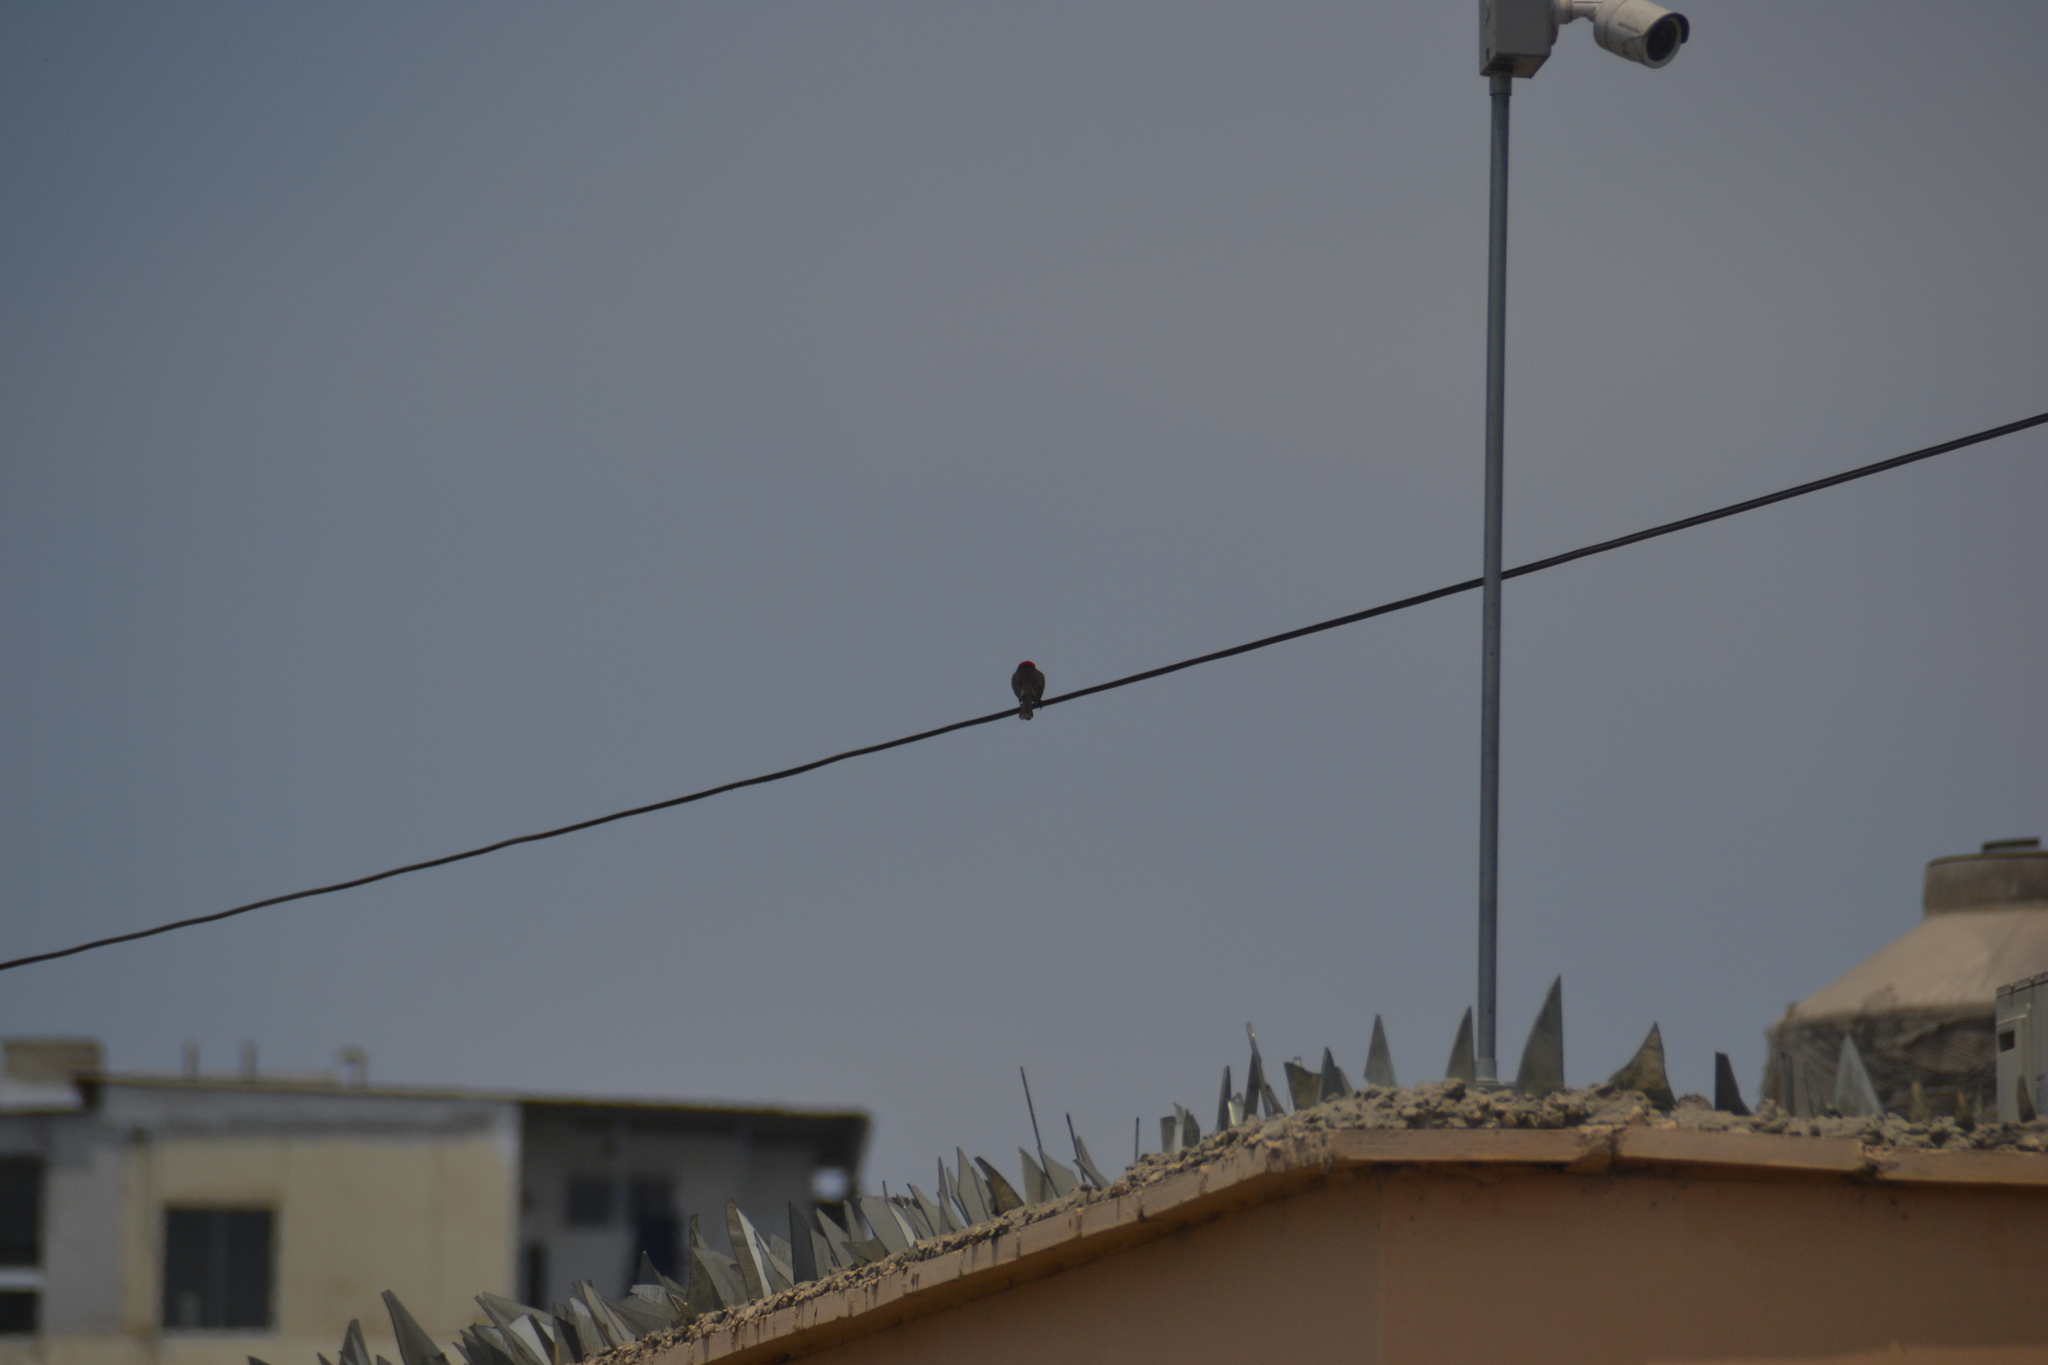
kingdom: Animalia
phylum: Chordata
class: Aves
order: Passeriformes
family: Tyrannidae
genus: Pyrocephalus
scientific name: Pyrocephalus rubinus
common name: Vermilion flycatcher
